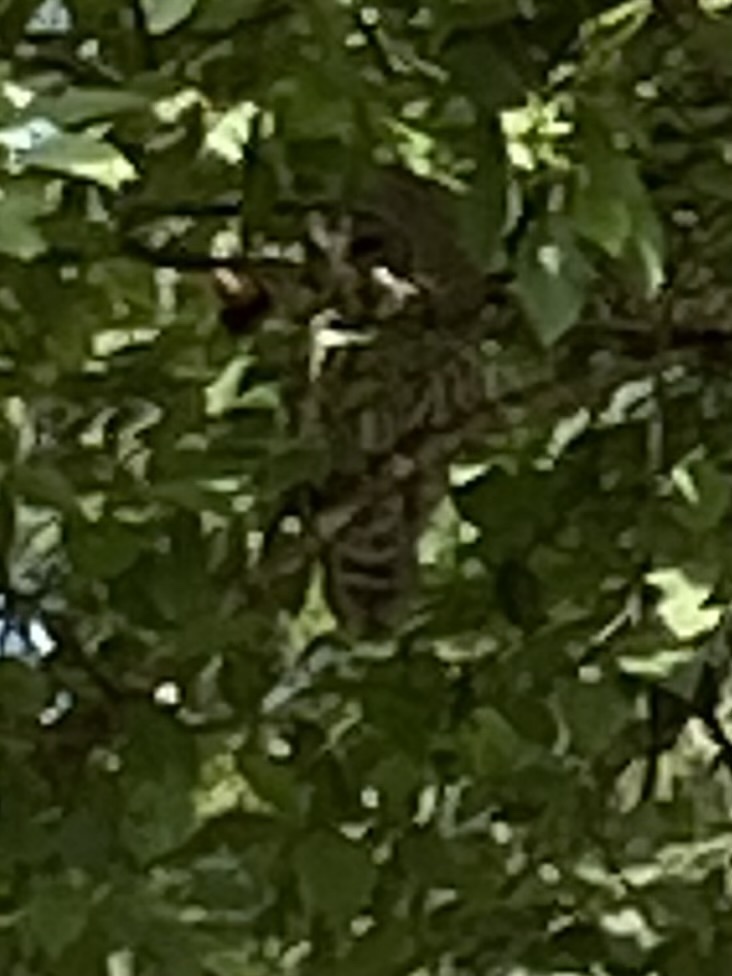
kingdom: Animalia
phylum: Chordata
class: Aves
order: Strigiformes
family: Strigidae
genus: Strix
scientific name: Strix varia
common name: Barred owl
